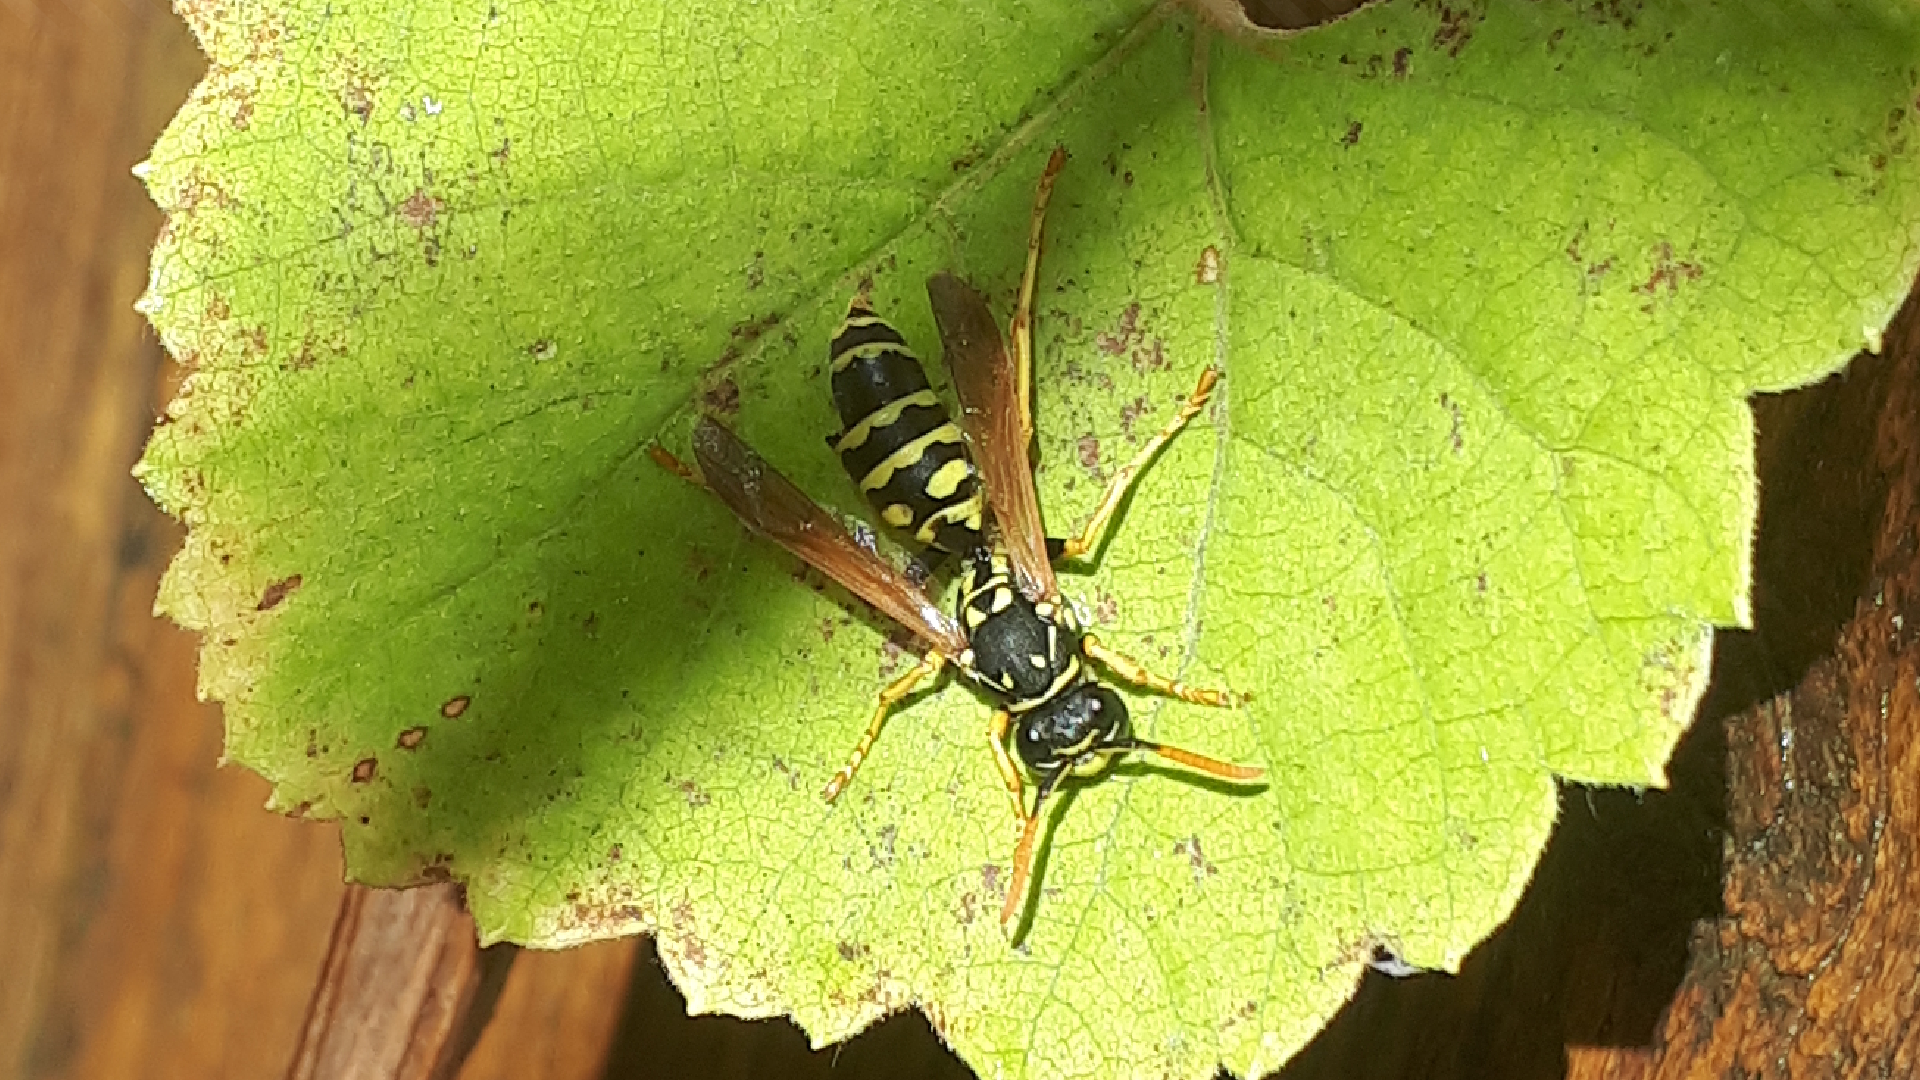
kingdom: Animalia
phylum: Arthropoda
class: Insecta
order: Strepsiptera
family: Xenidae
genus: Xenos
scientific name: Xenos vesparum
